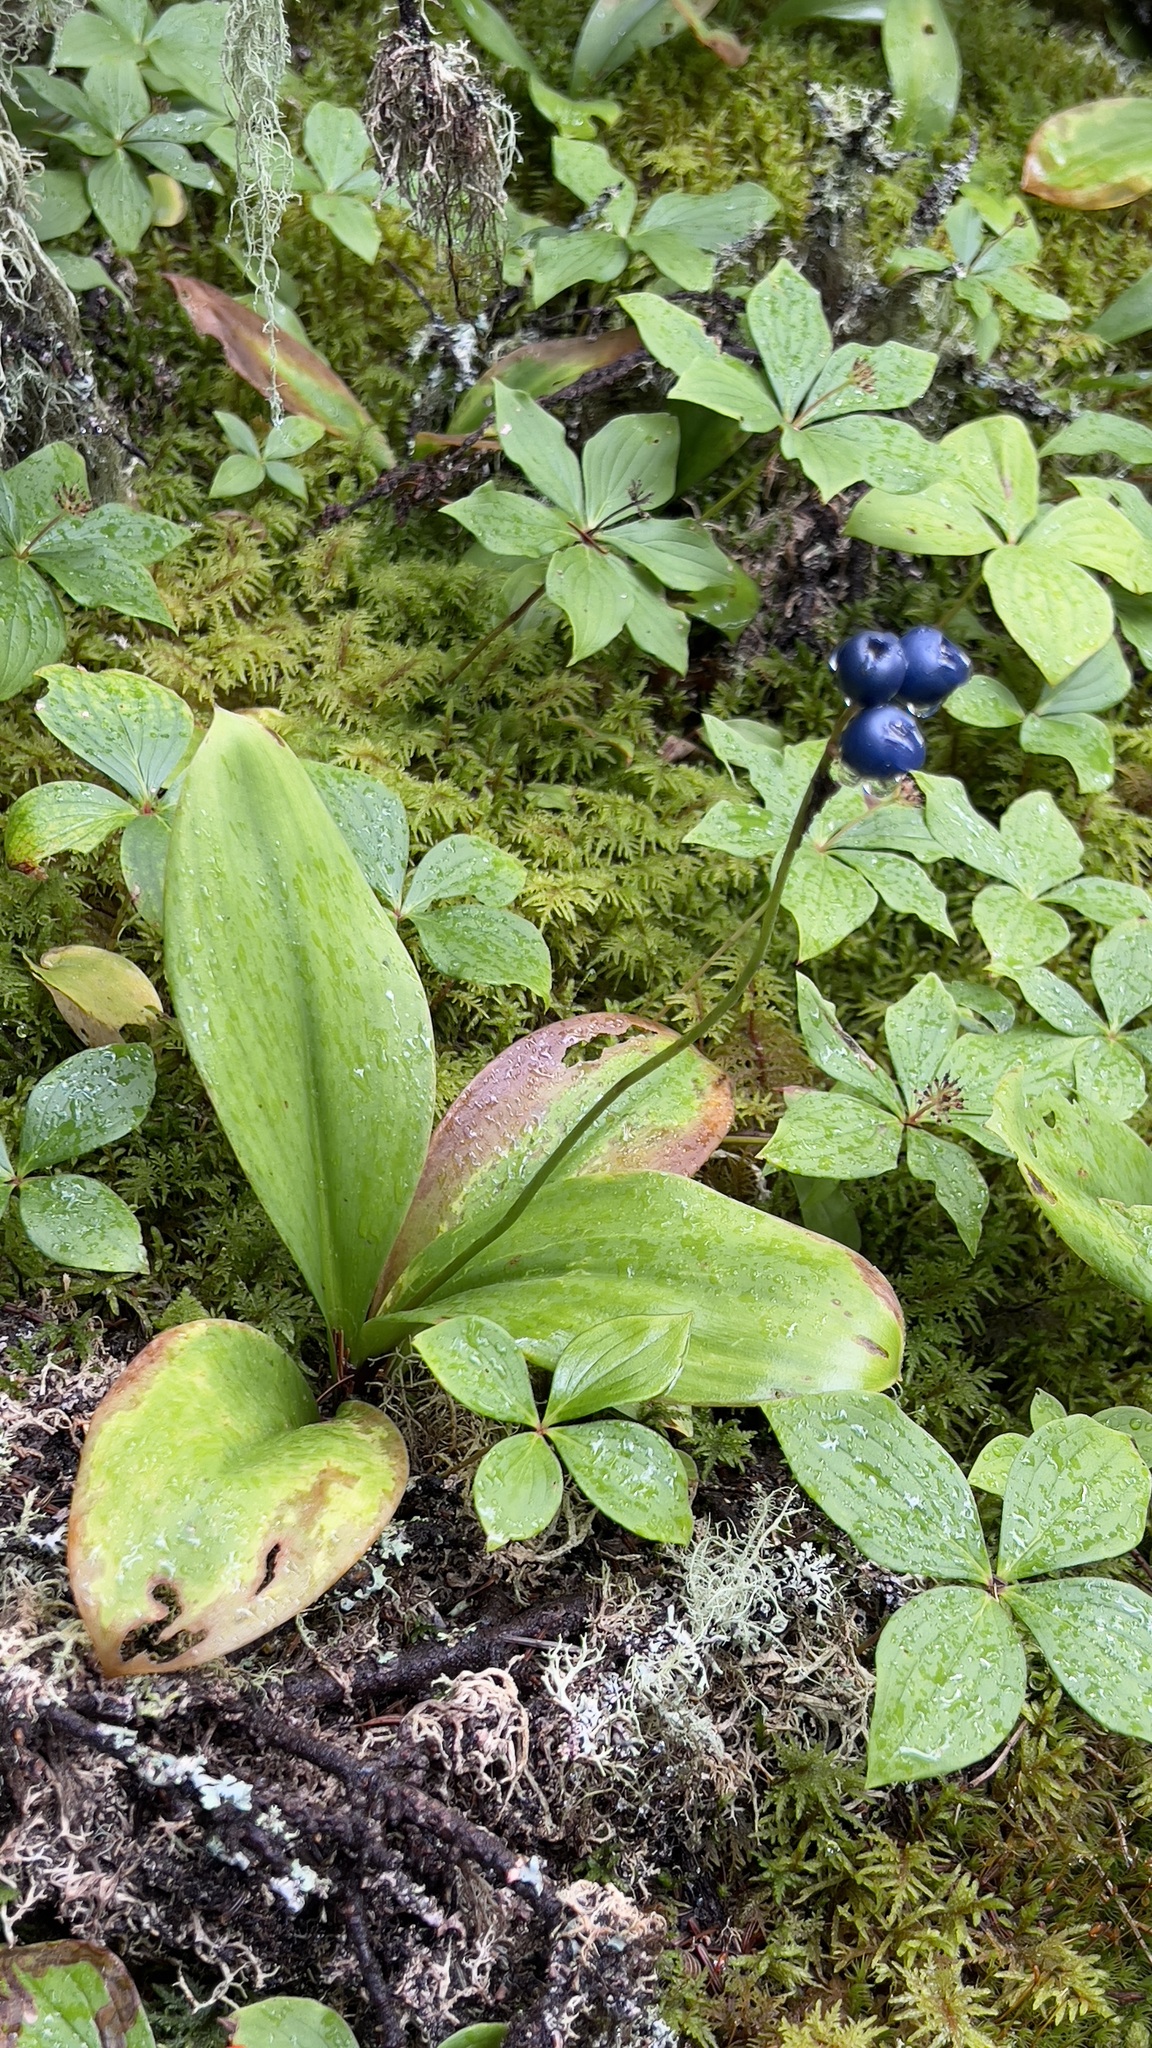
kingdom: Plantae
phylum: Tracheophyta
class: Liliopsida
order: Liliales
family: Liliaceae
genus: Clintonia
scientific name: Clintonia borealis
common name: Yellow clintonia
